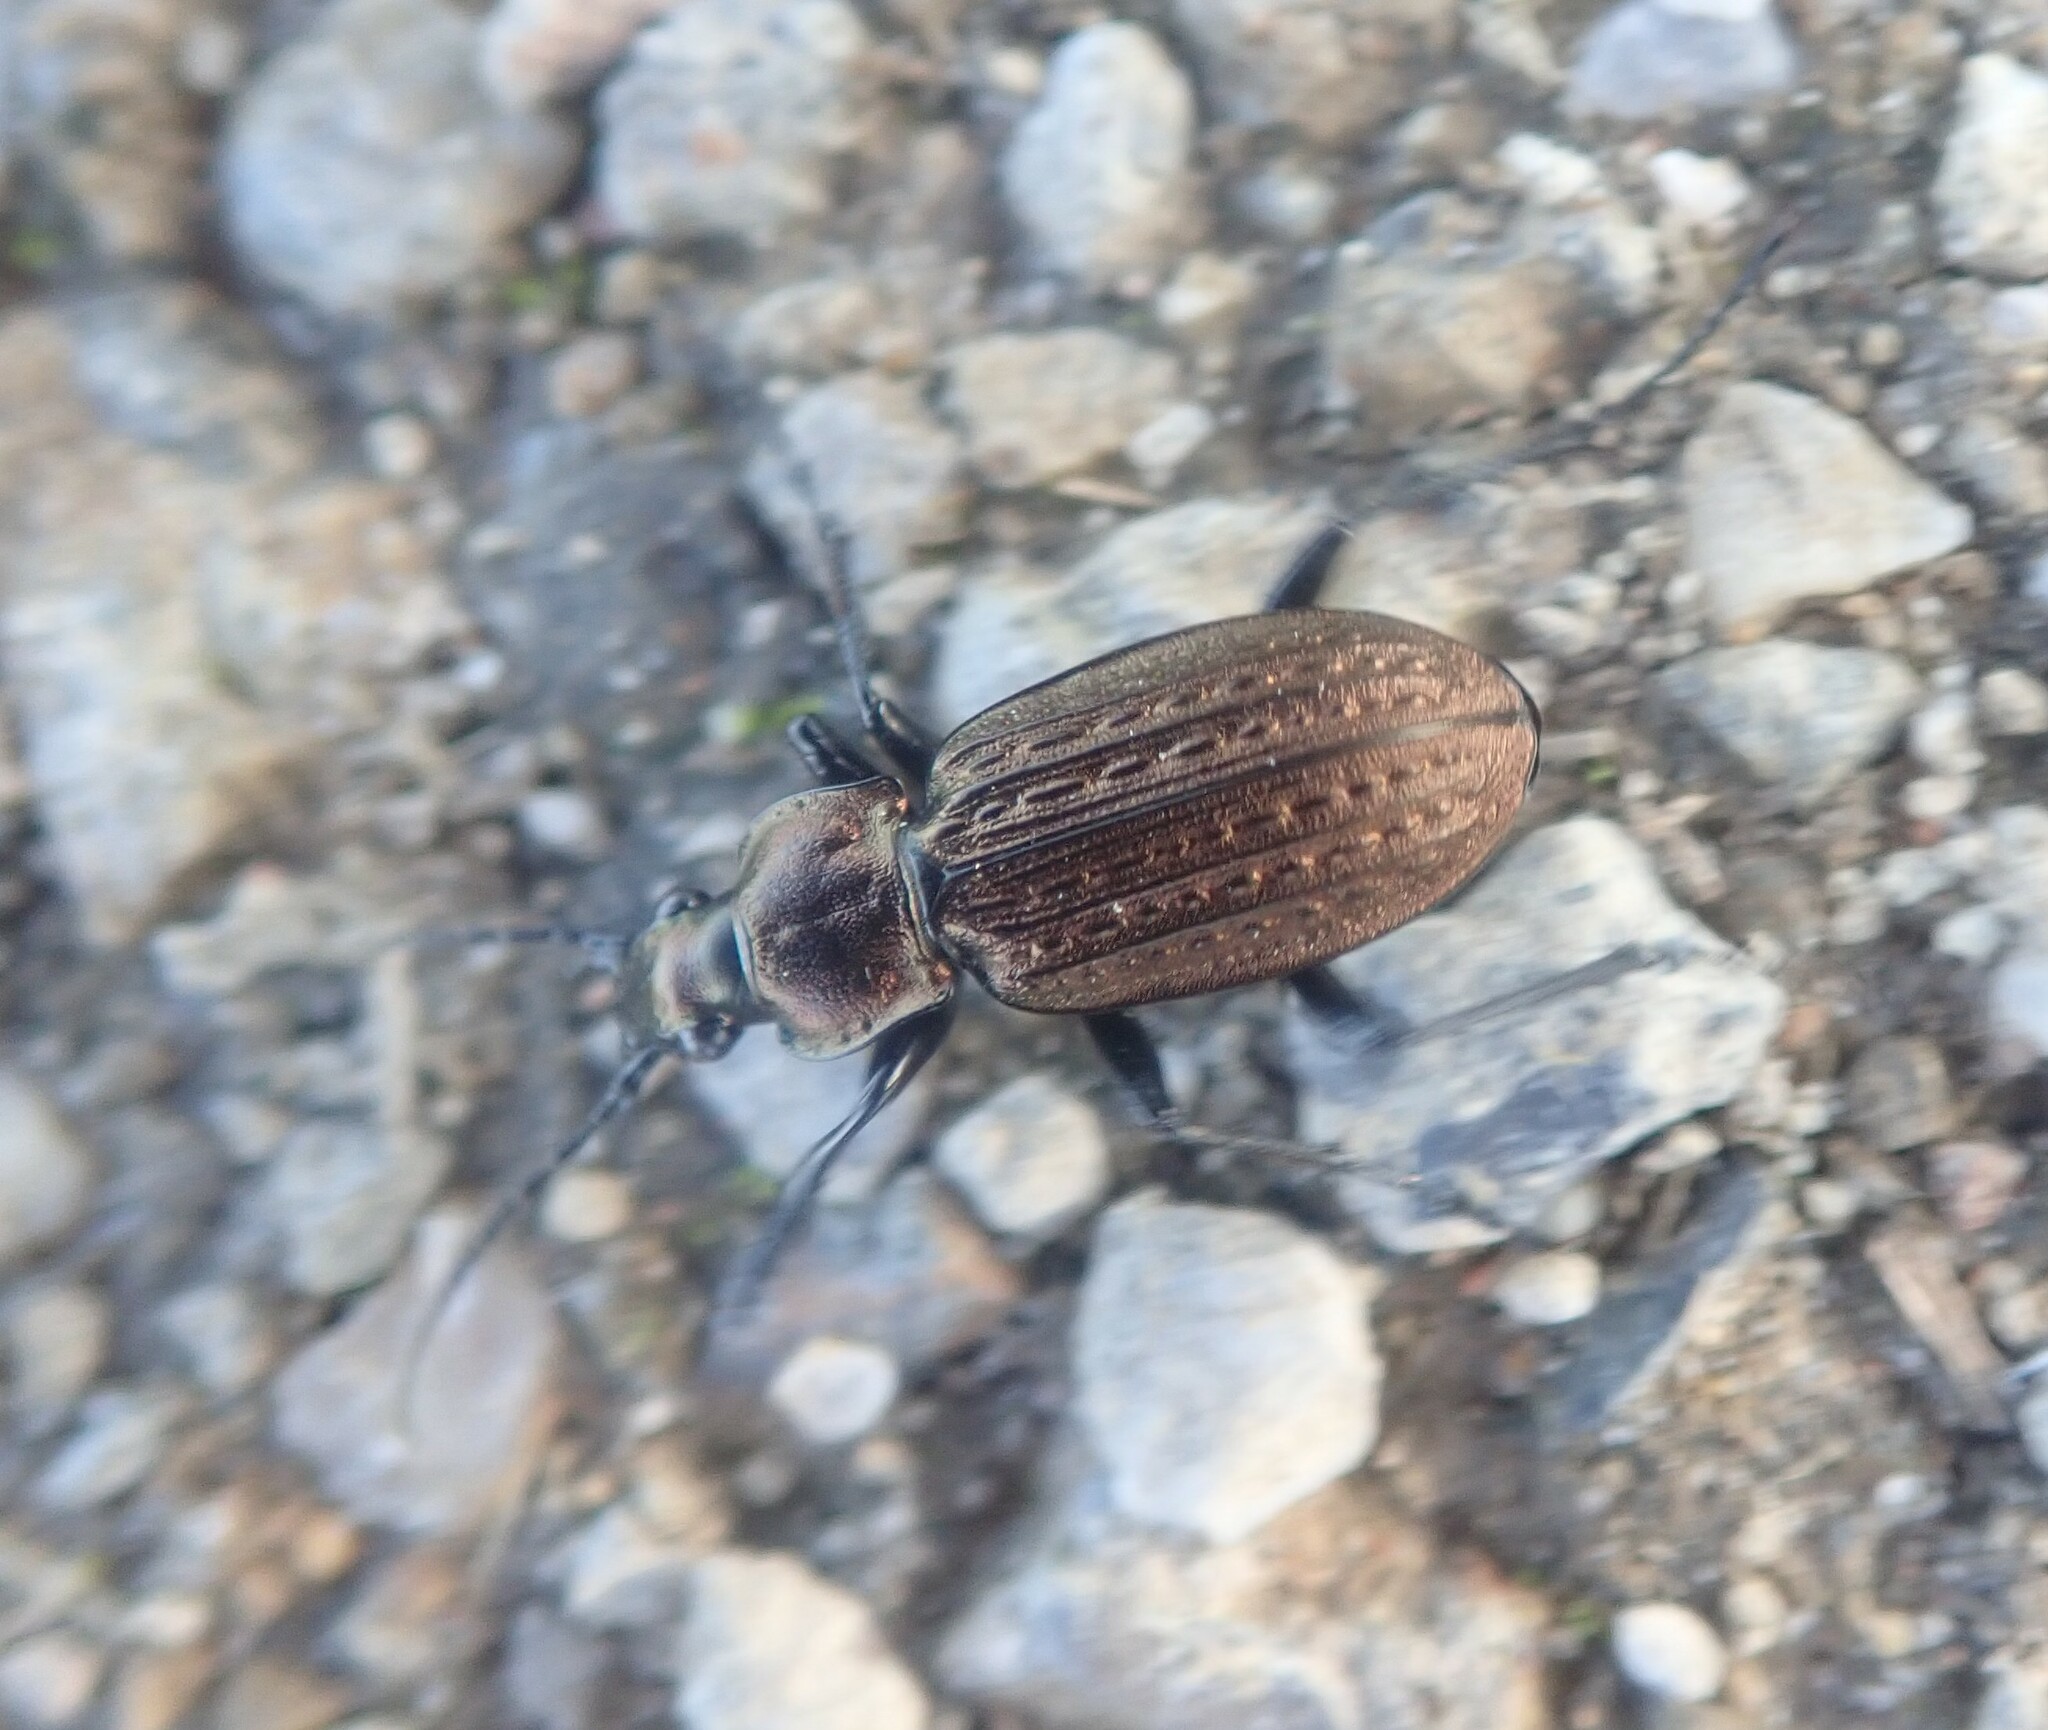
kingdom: Animalia
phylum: Arthropoda
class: Insecta
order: Coleoptera
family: Carabidae
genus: Carabus
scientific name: Carabus granulatus
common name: Granulate ground beetle
